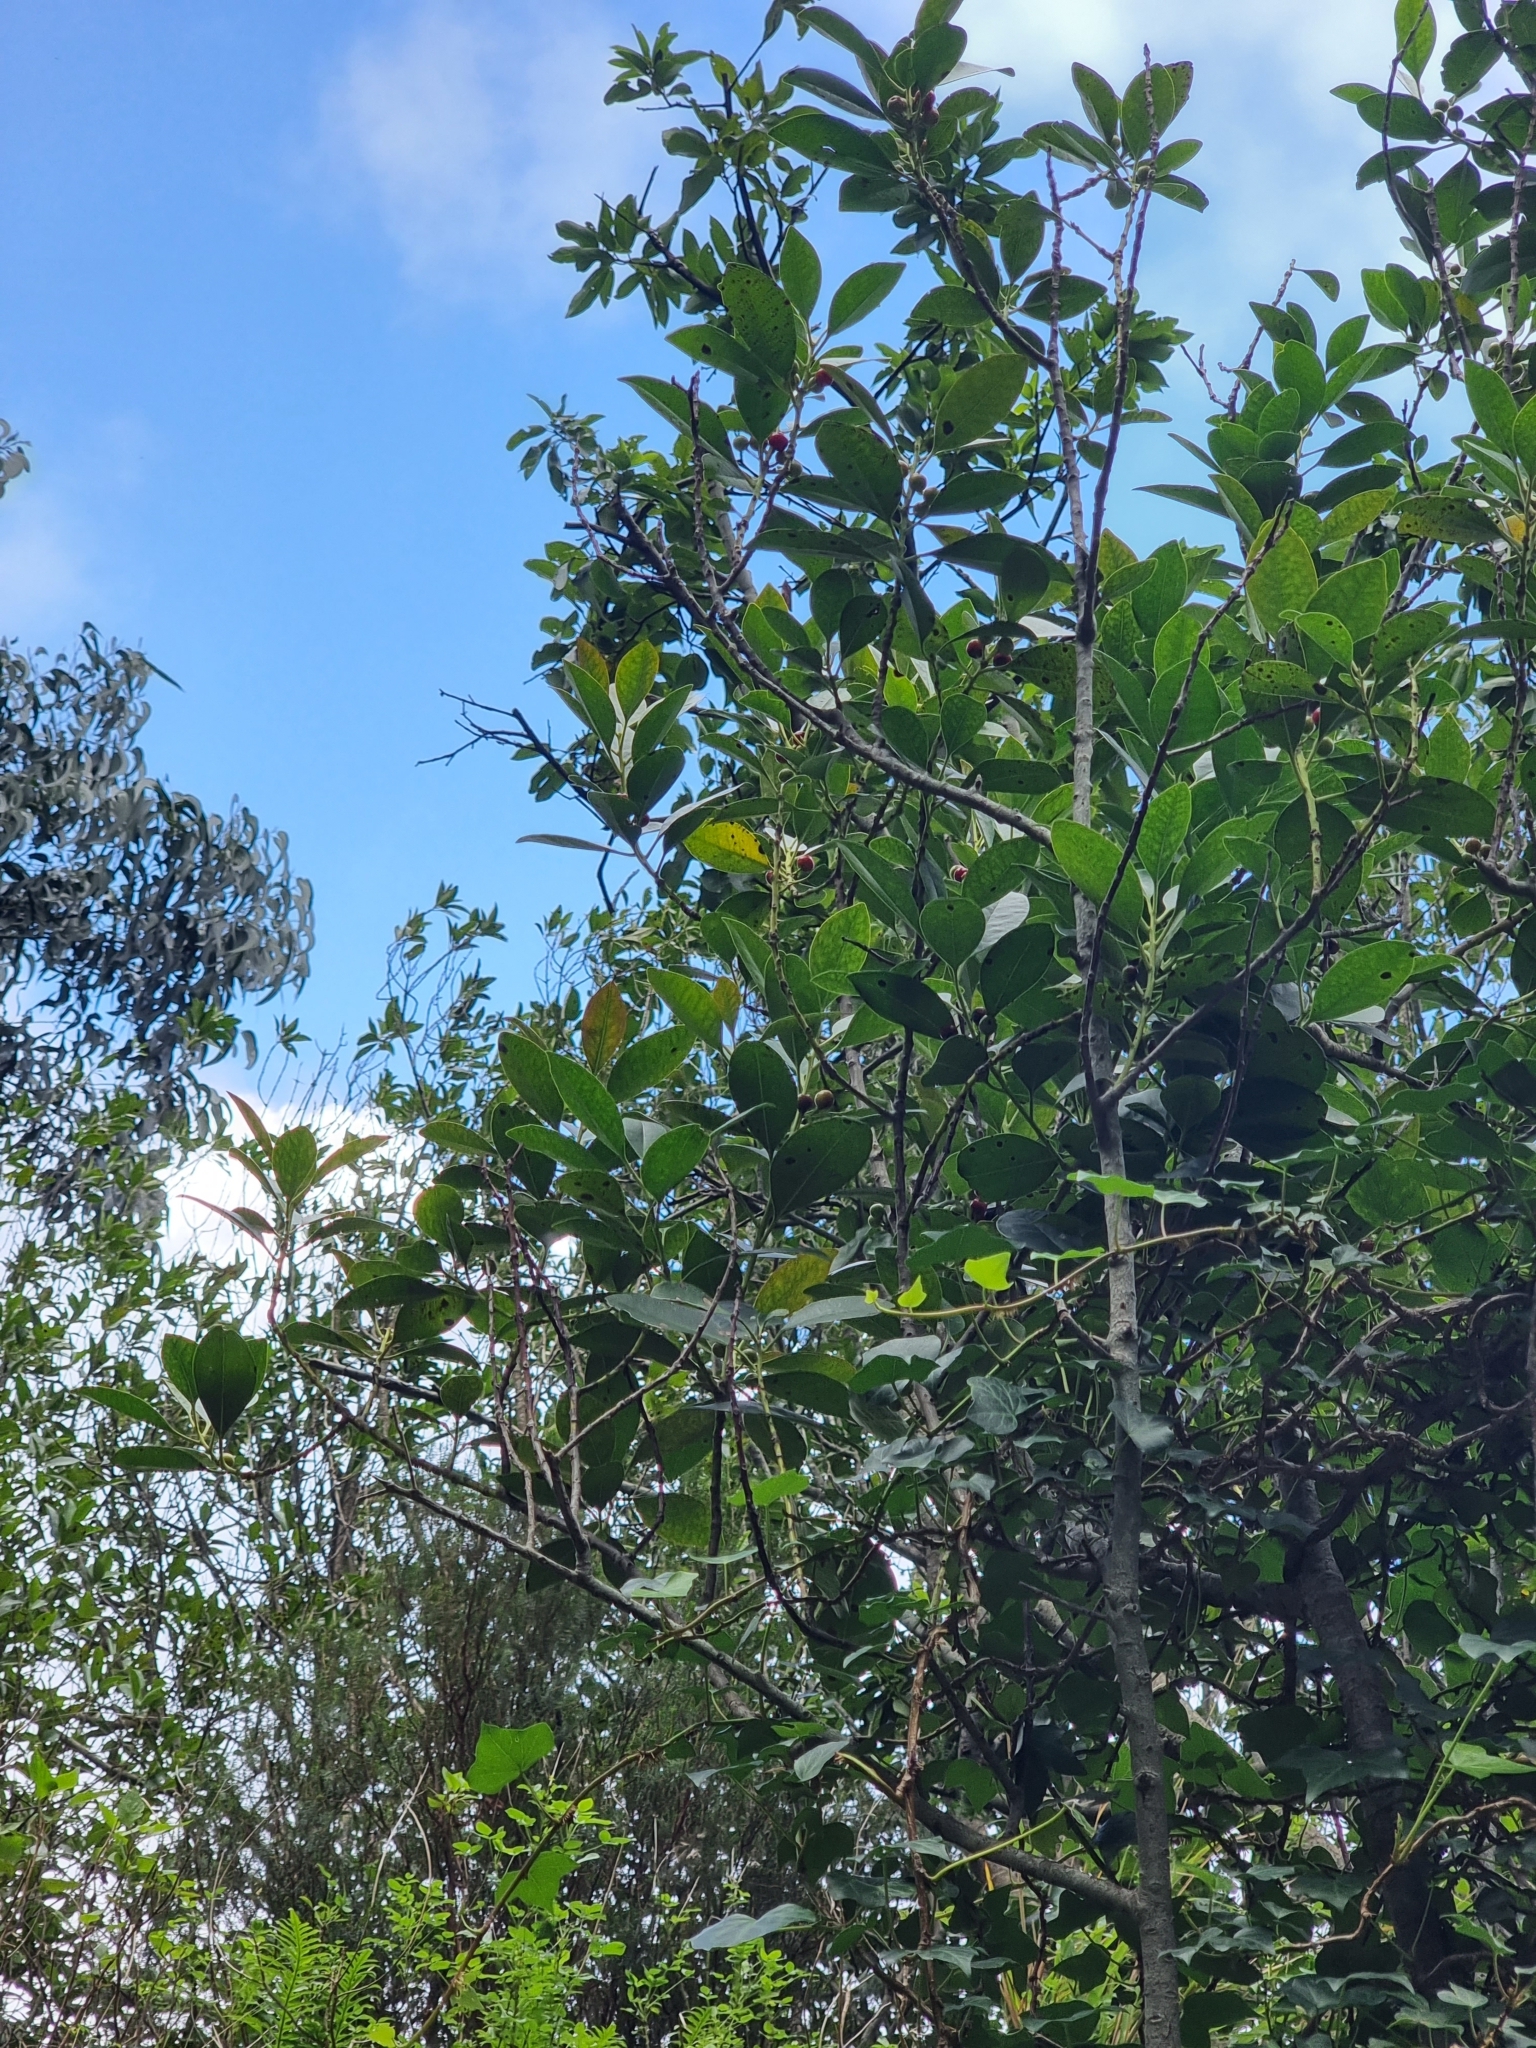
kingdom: Plantae
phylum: Tracheophyta
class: Magnoliopsida
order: Aquifoliales
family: Aquifoliaceae
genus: Ilex
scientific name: Ilex canariensis
